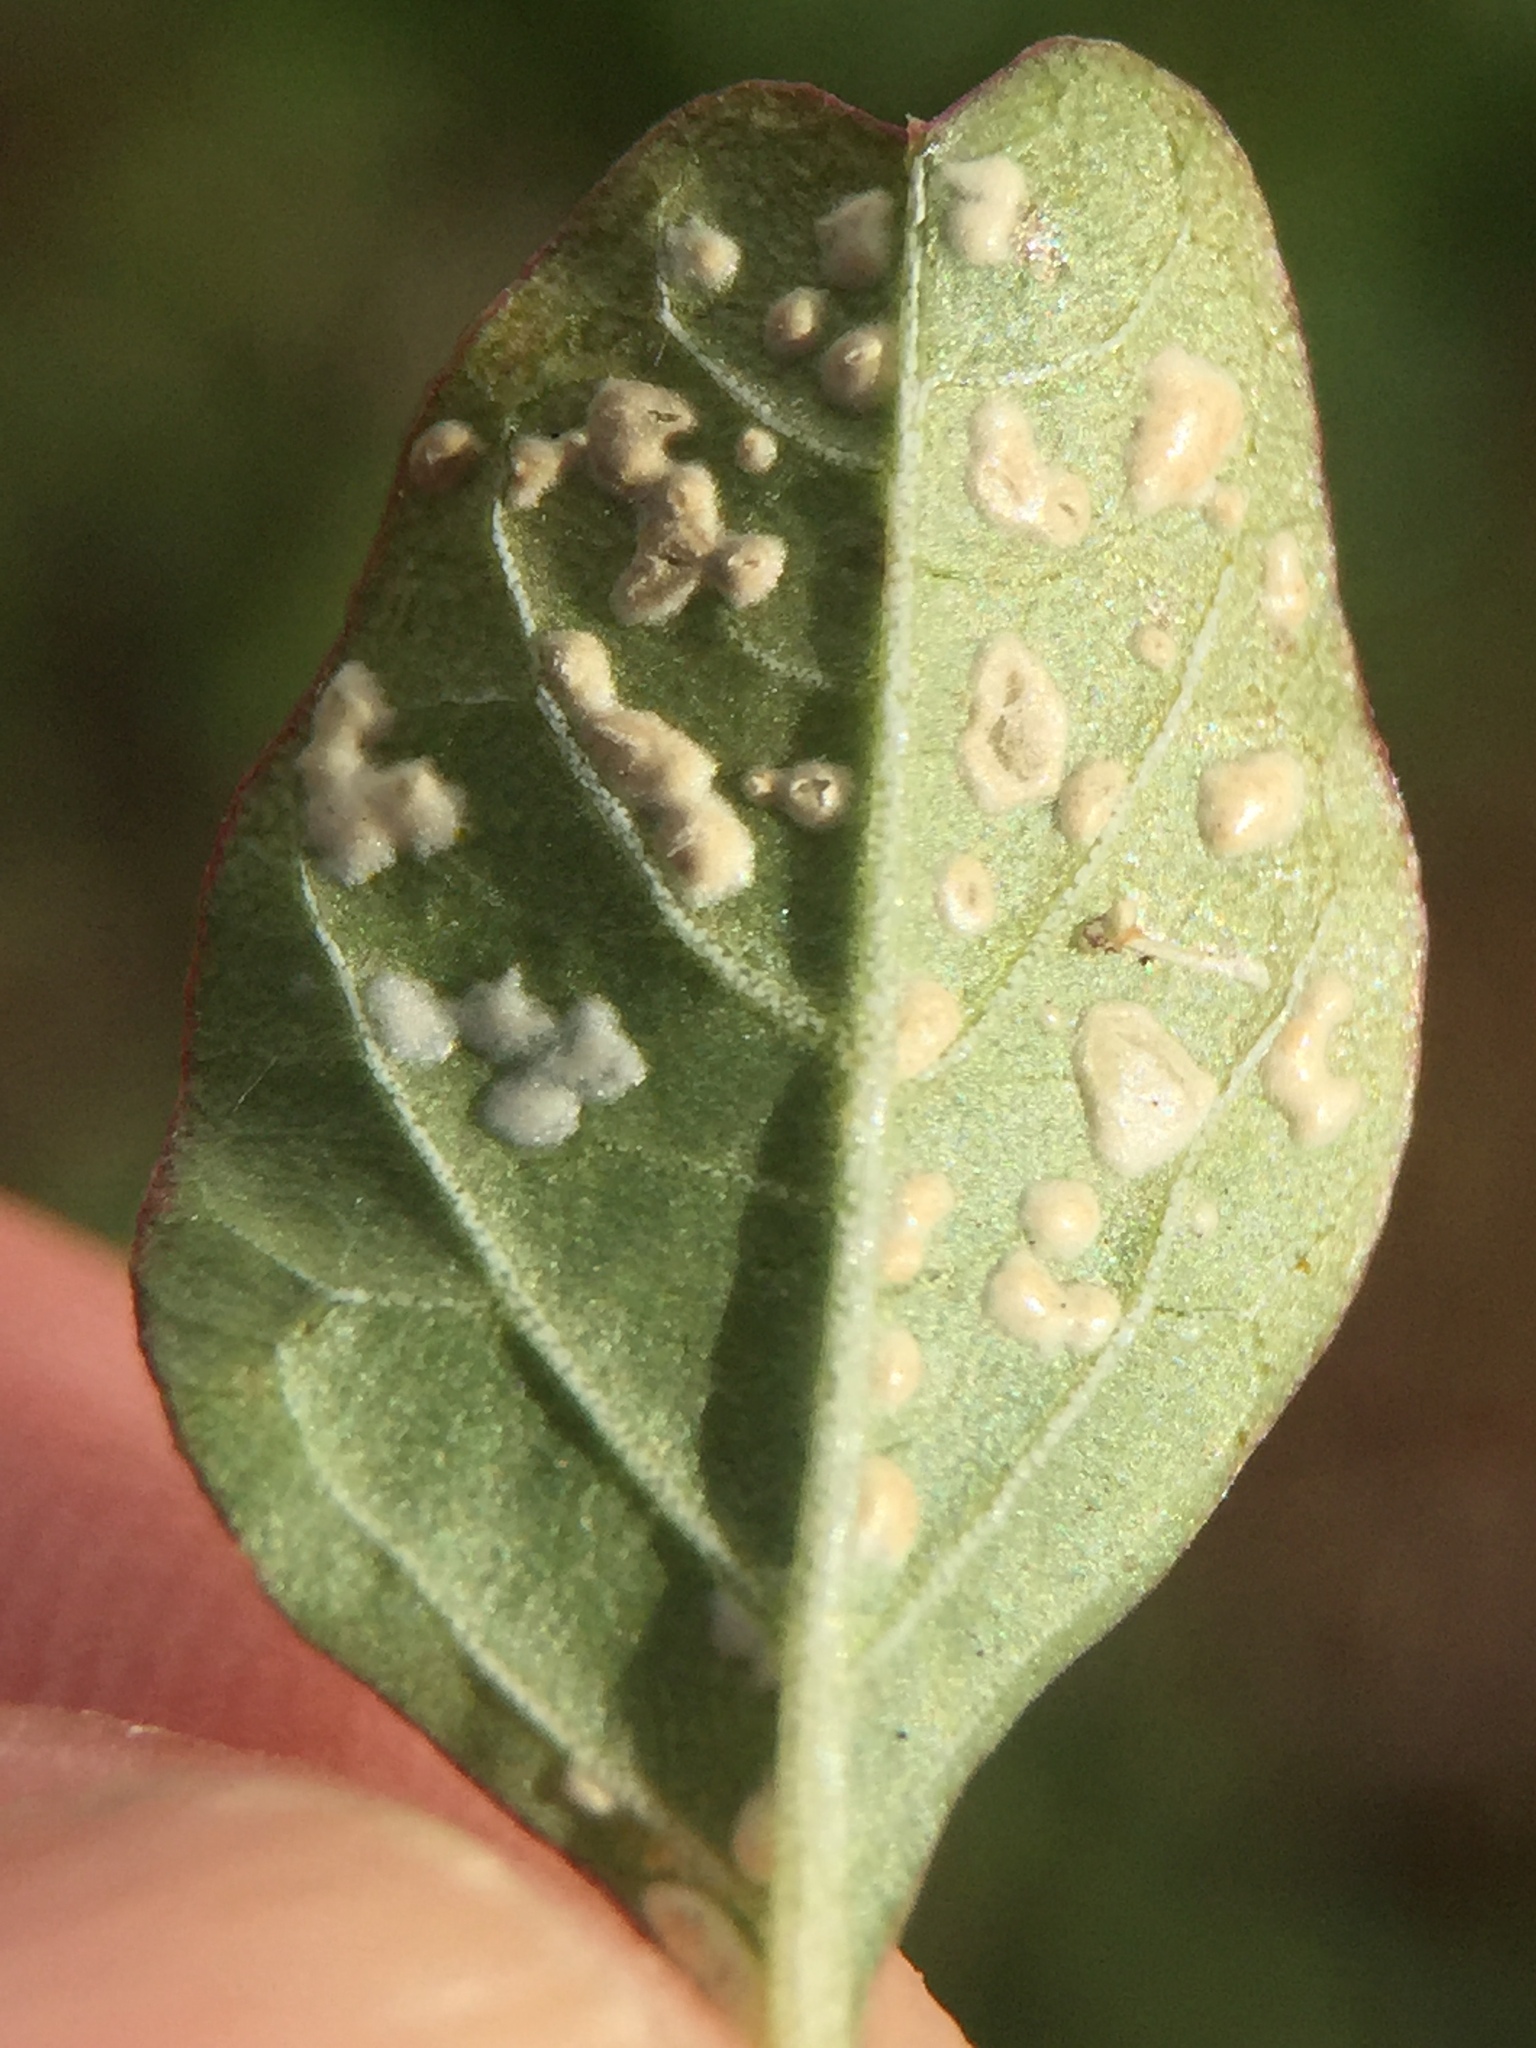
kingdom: Chromista
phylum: Oomycota
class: Peronosporea
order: Albuginales
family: Albuginaceae
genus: Wilsoniana
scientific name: Wilsoniana bliti
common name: White blister rust disease
